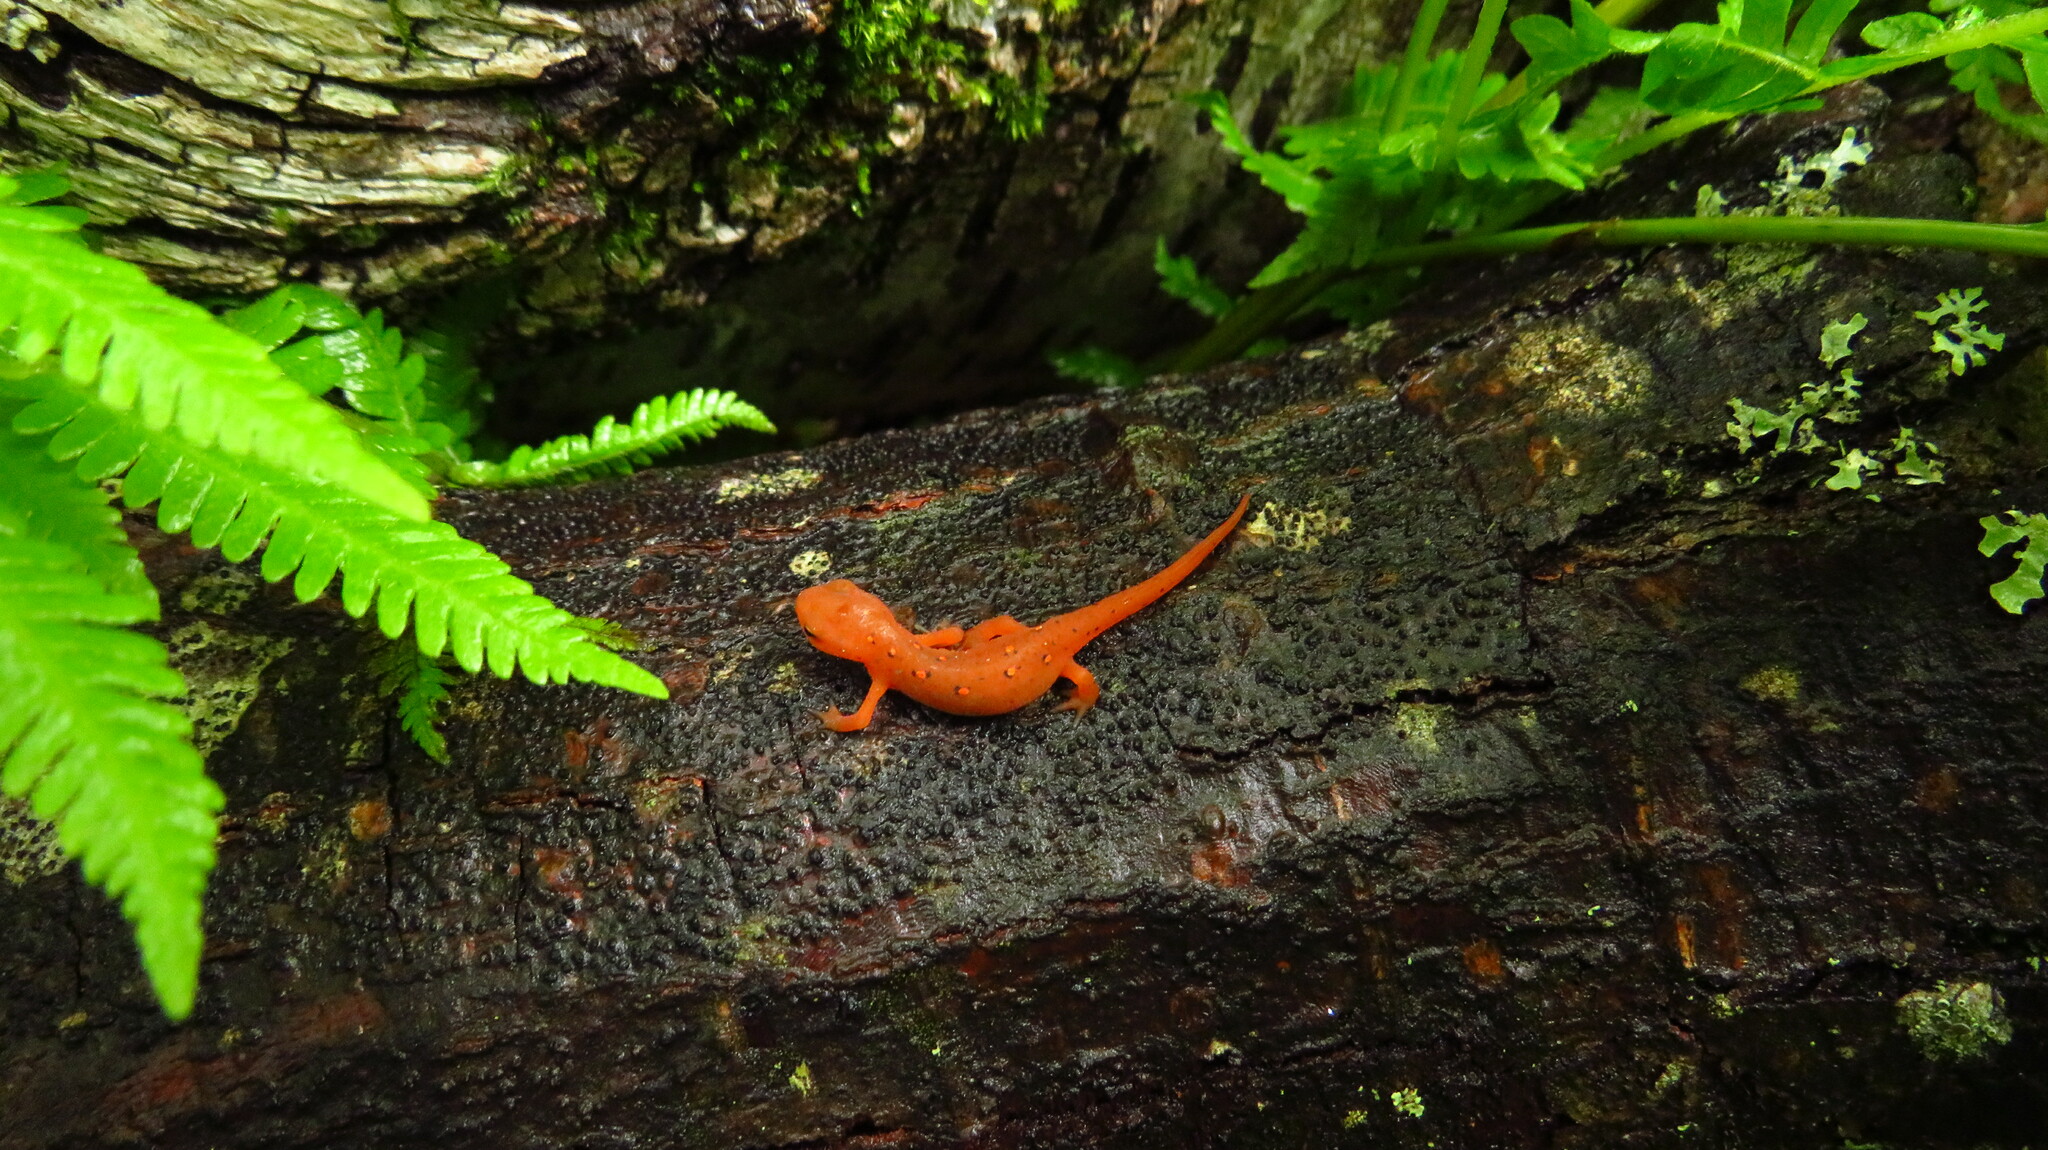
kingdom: Animalia
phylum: Chordata
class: Amphibia
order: Caudata
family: Salamandridae
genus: Notophthalmus
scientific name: Notophthalmus viridescens
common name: Eastern newt
